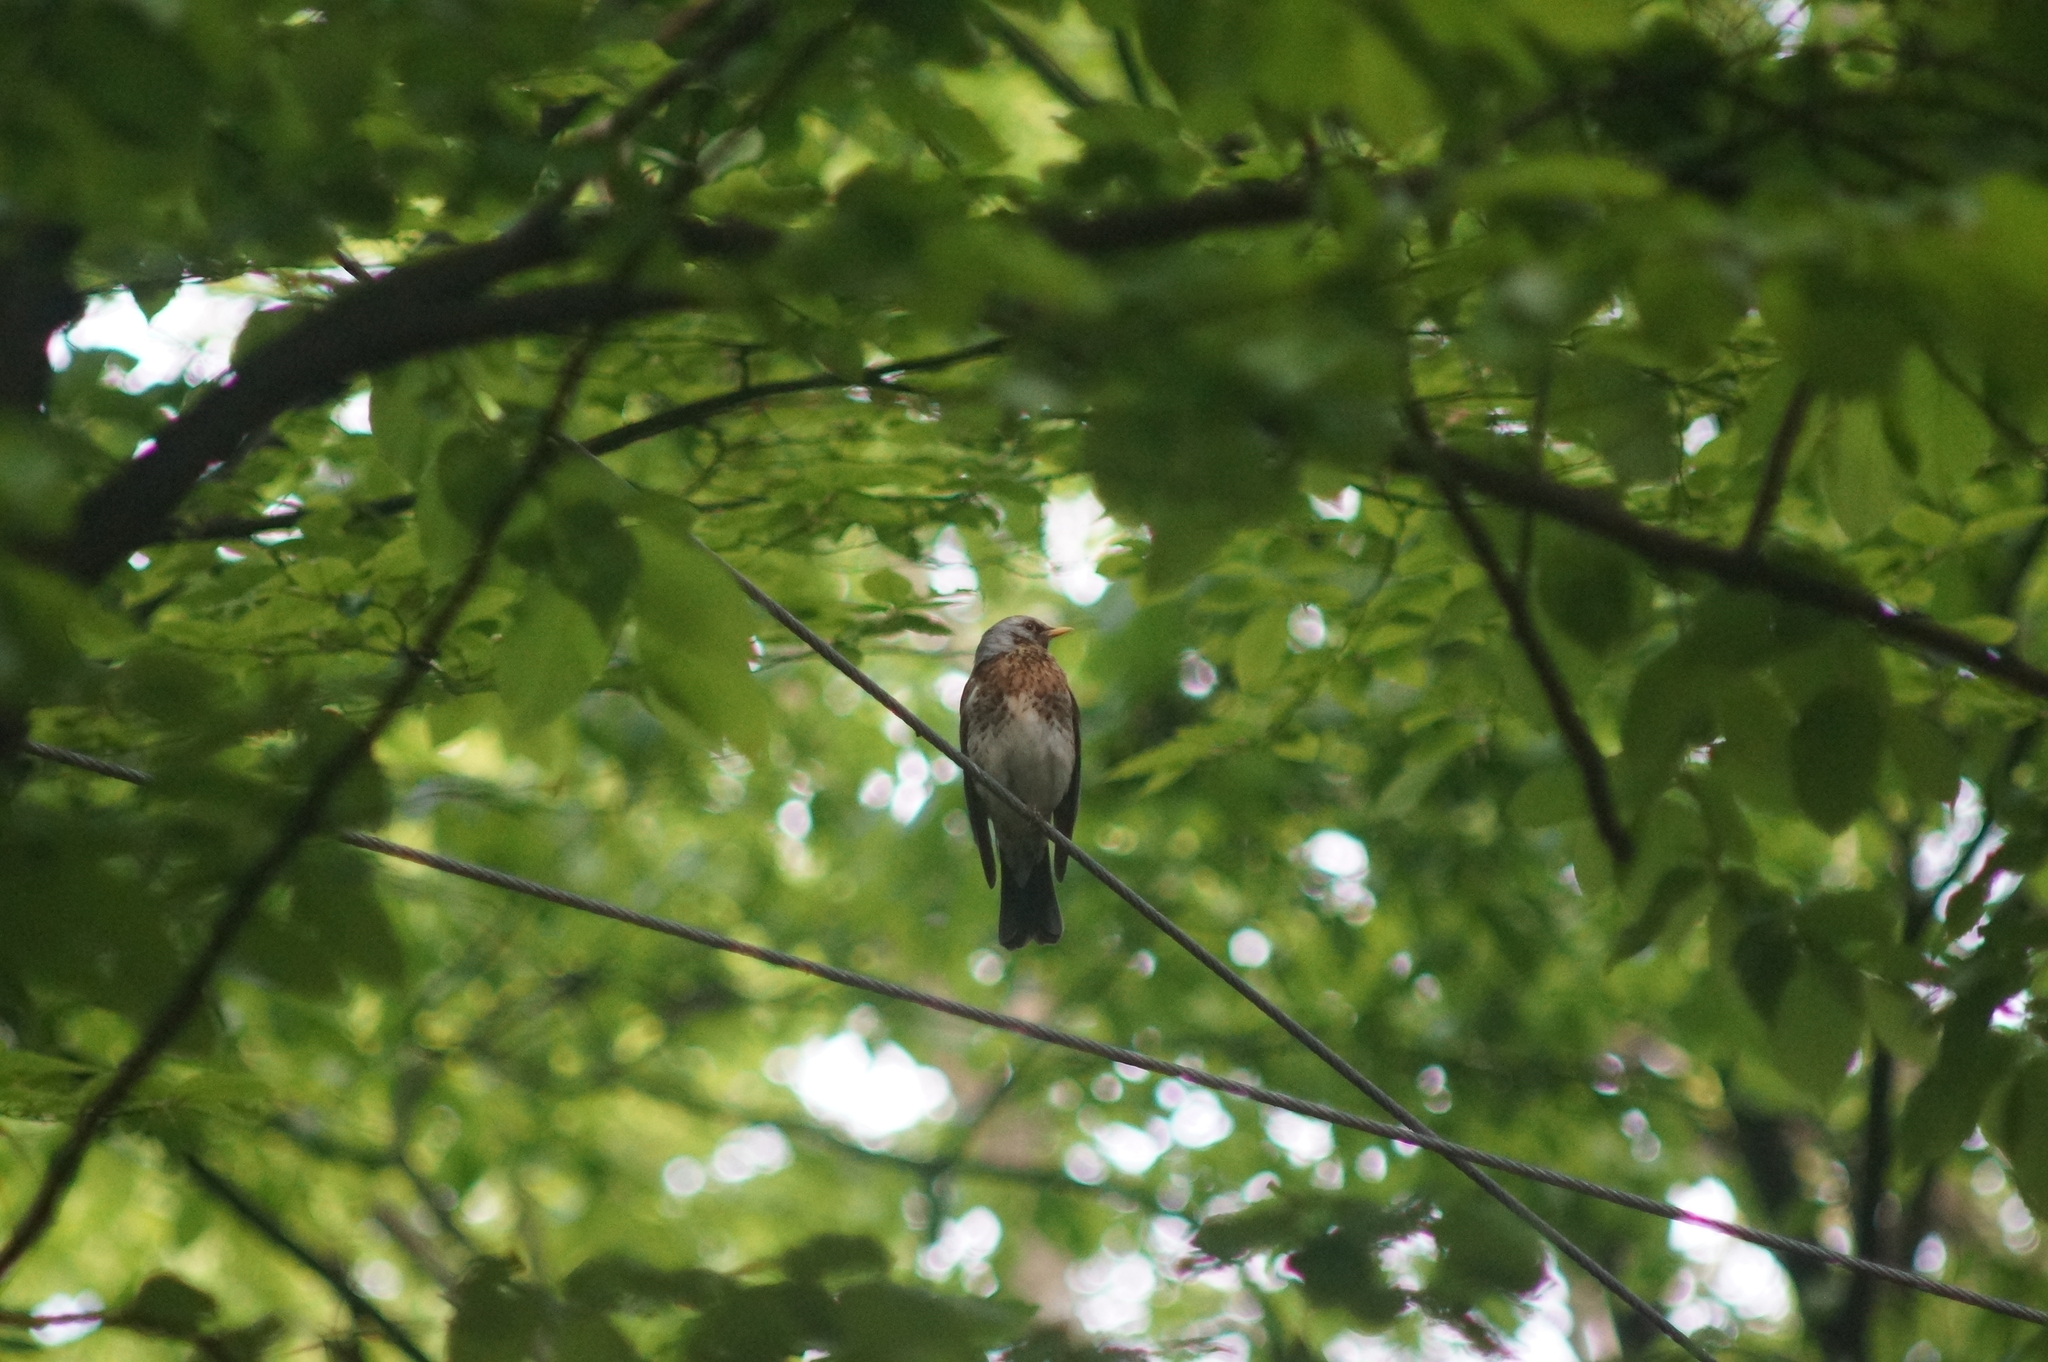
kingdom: Animalia
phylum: Chordata
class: Aves
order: Passeriformes
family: Turdidae
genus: Turdus
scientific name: Turdus pilaris
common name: Fieldfare
